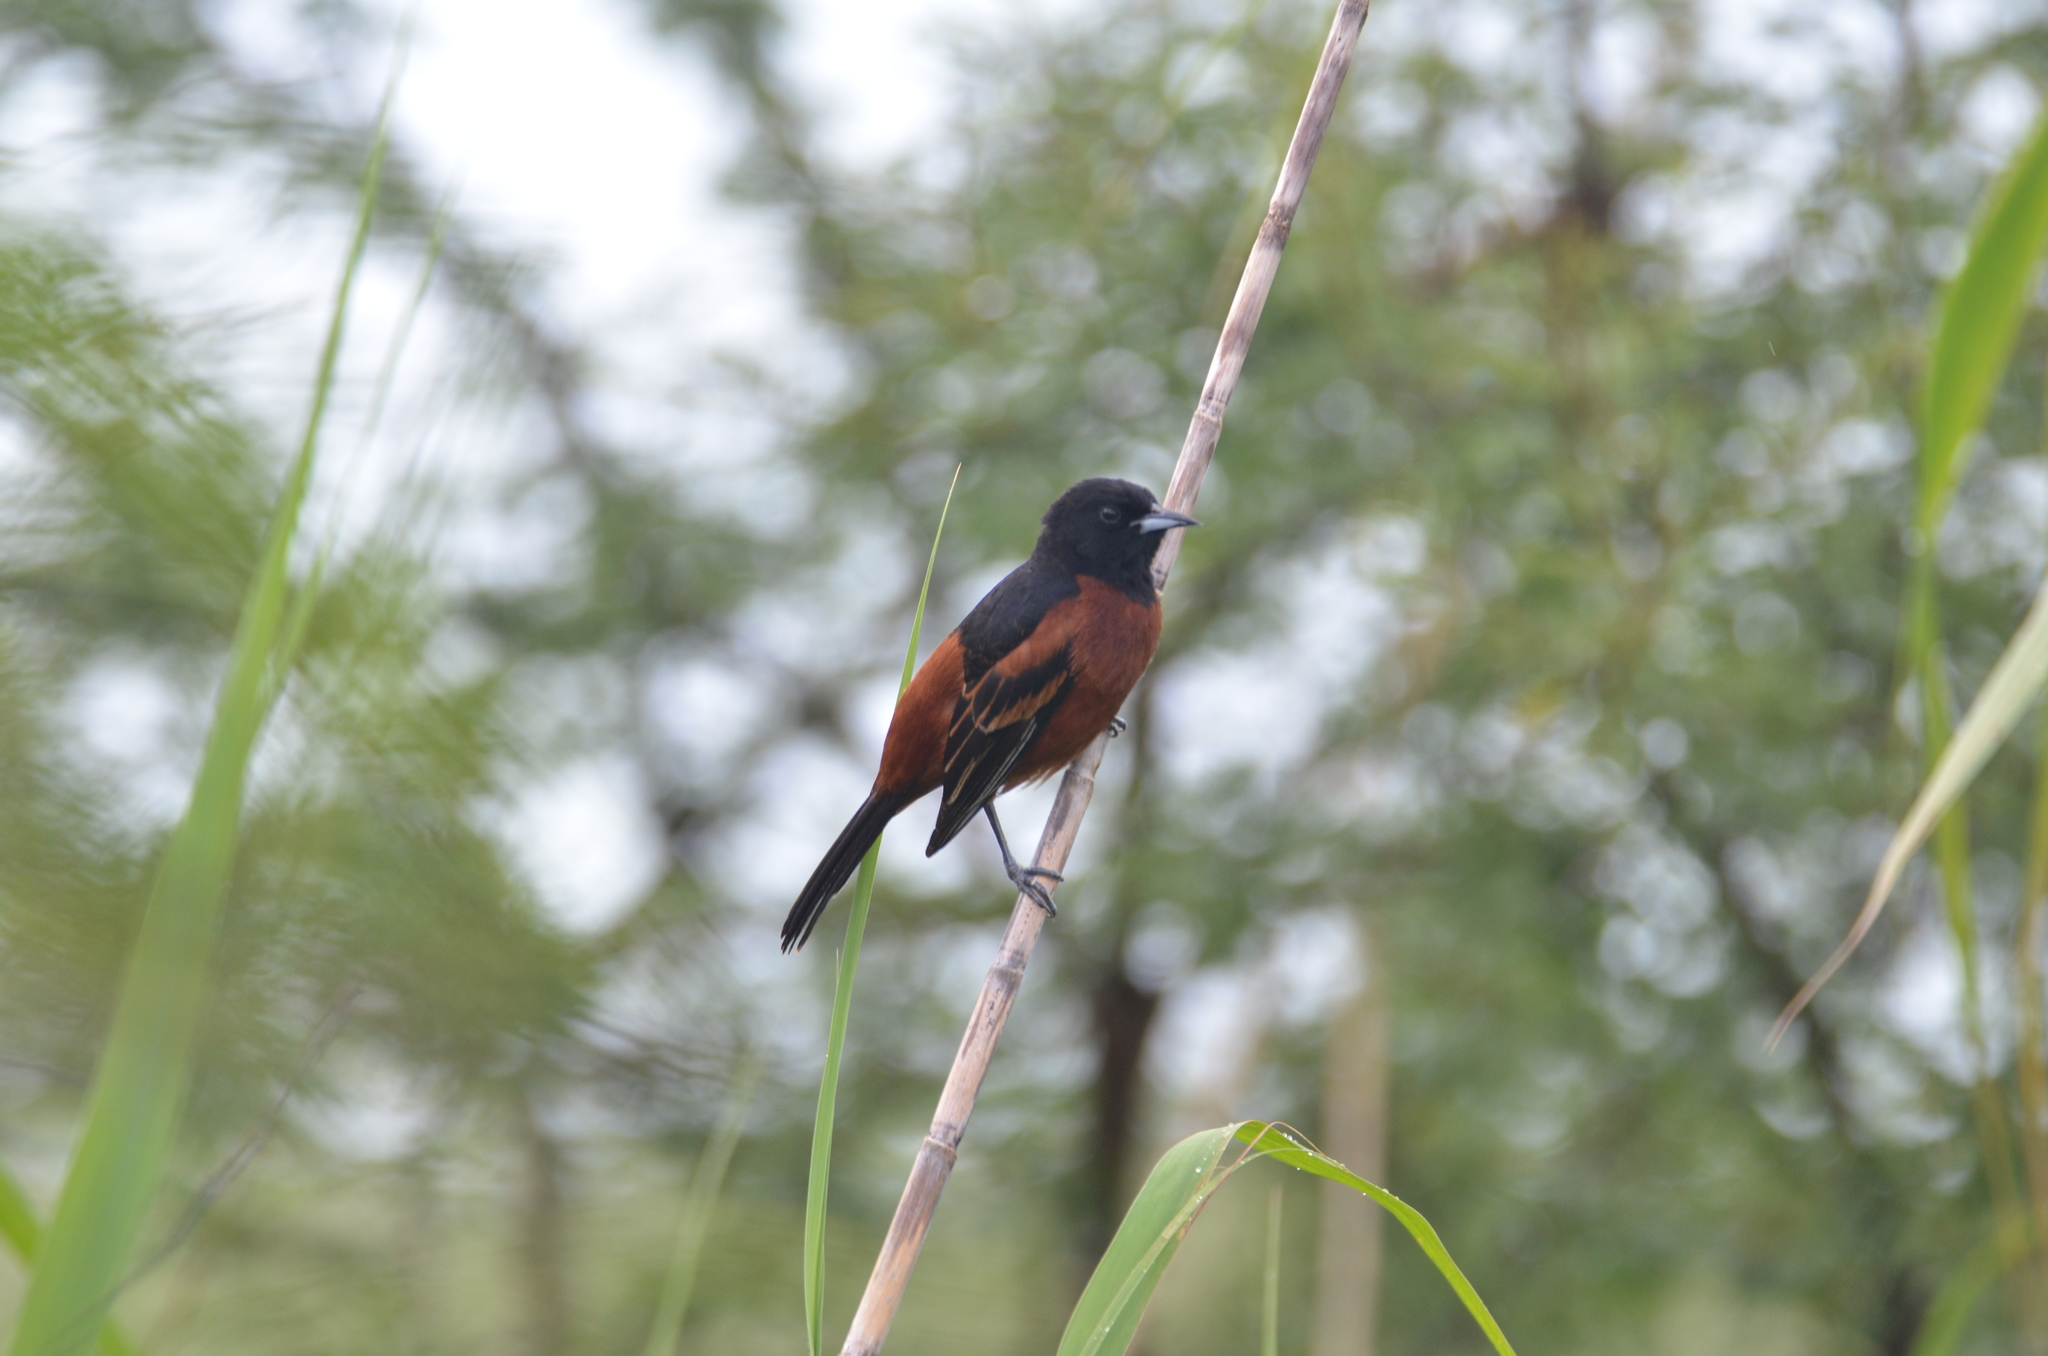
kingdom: Animalia
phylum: Chordata
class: Aves
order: Passeriformes
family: Icteridae
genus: Icterus
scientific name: Icterus spurius
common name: Orchard oriole
